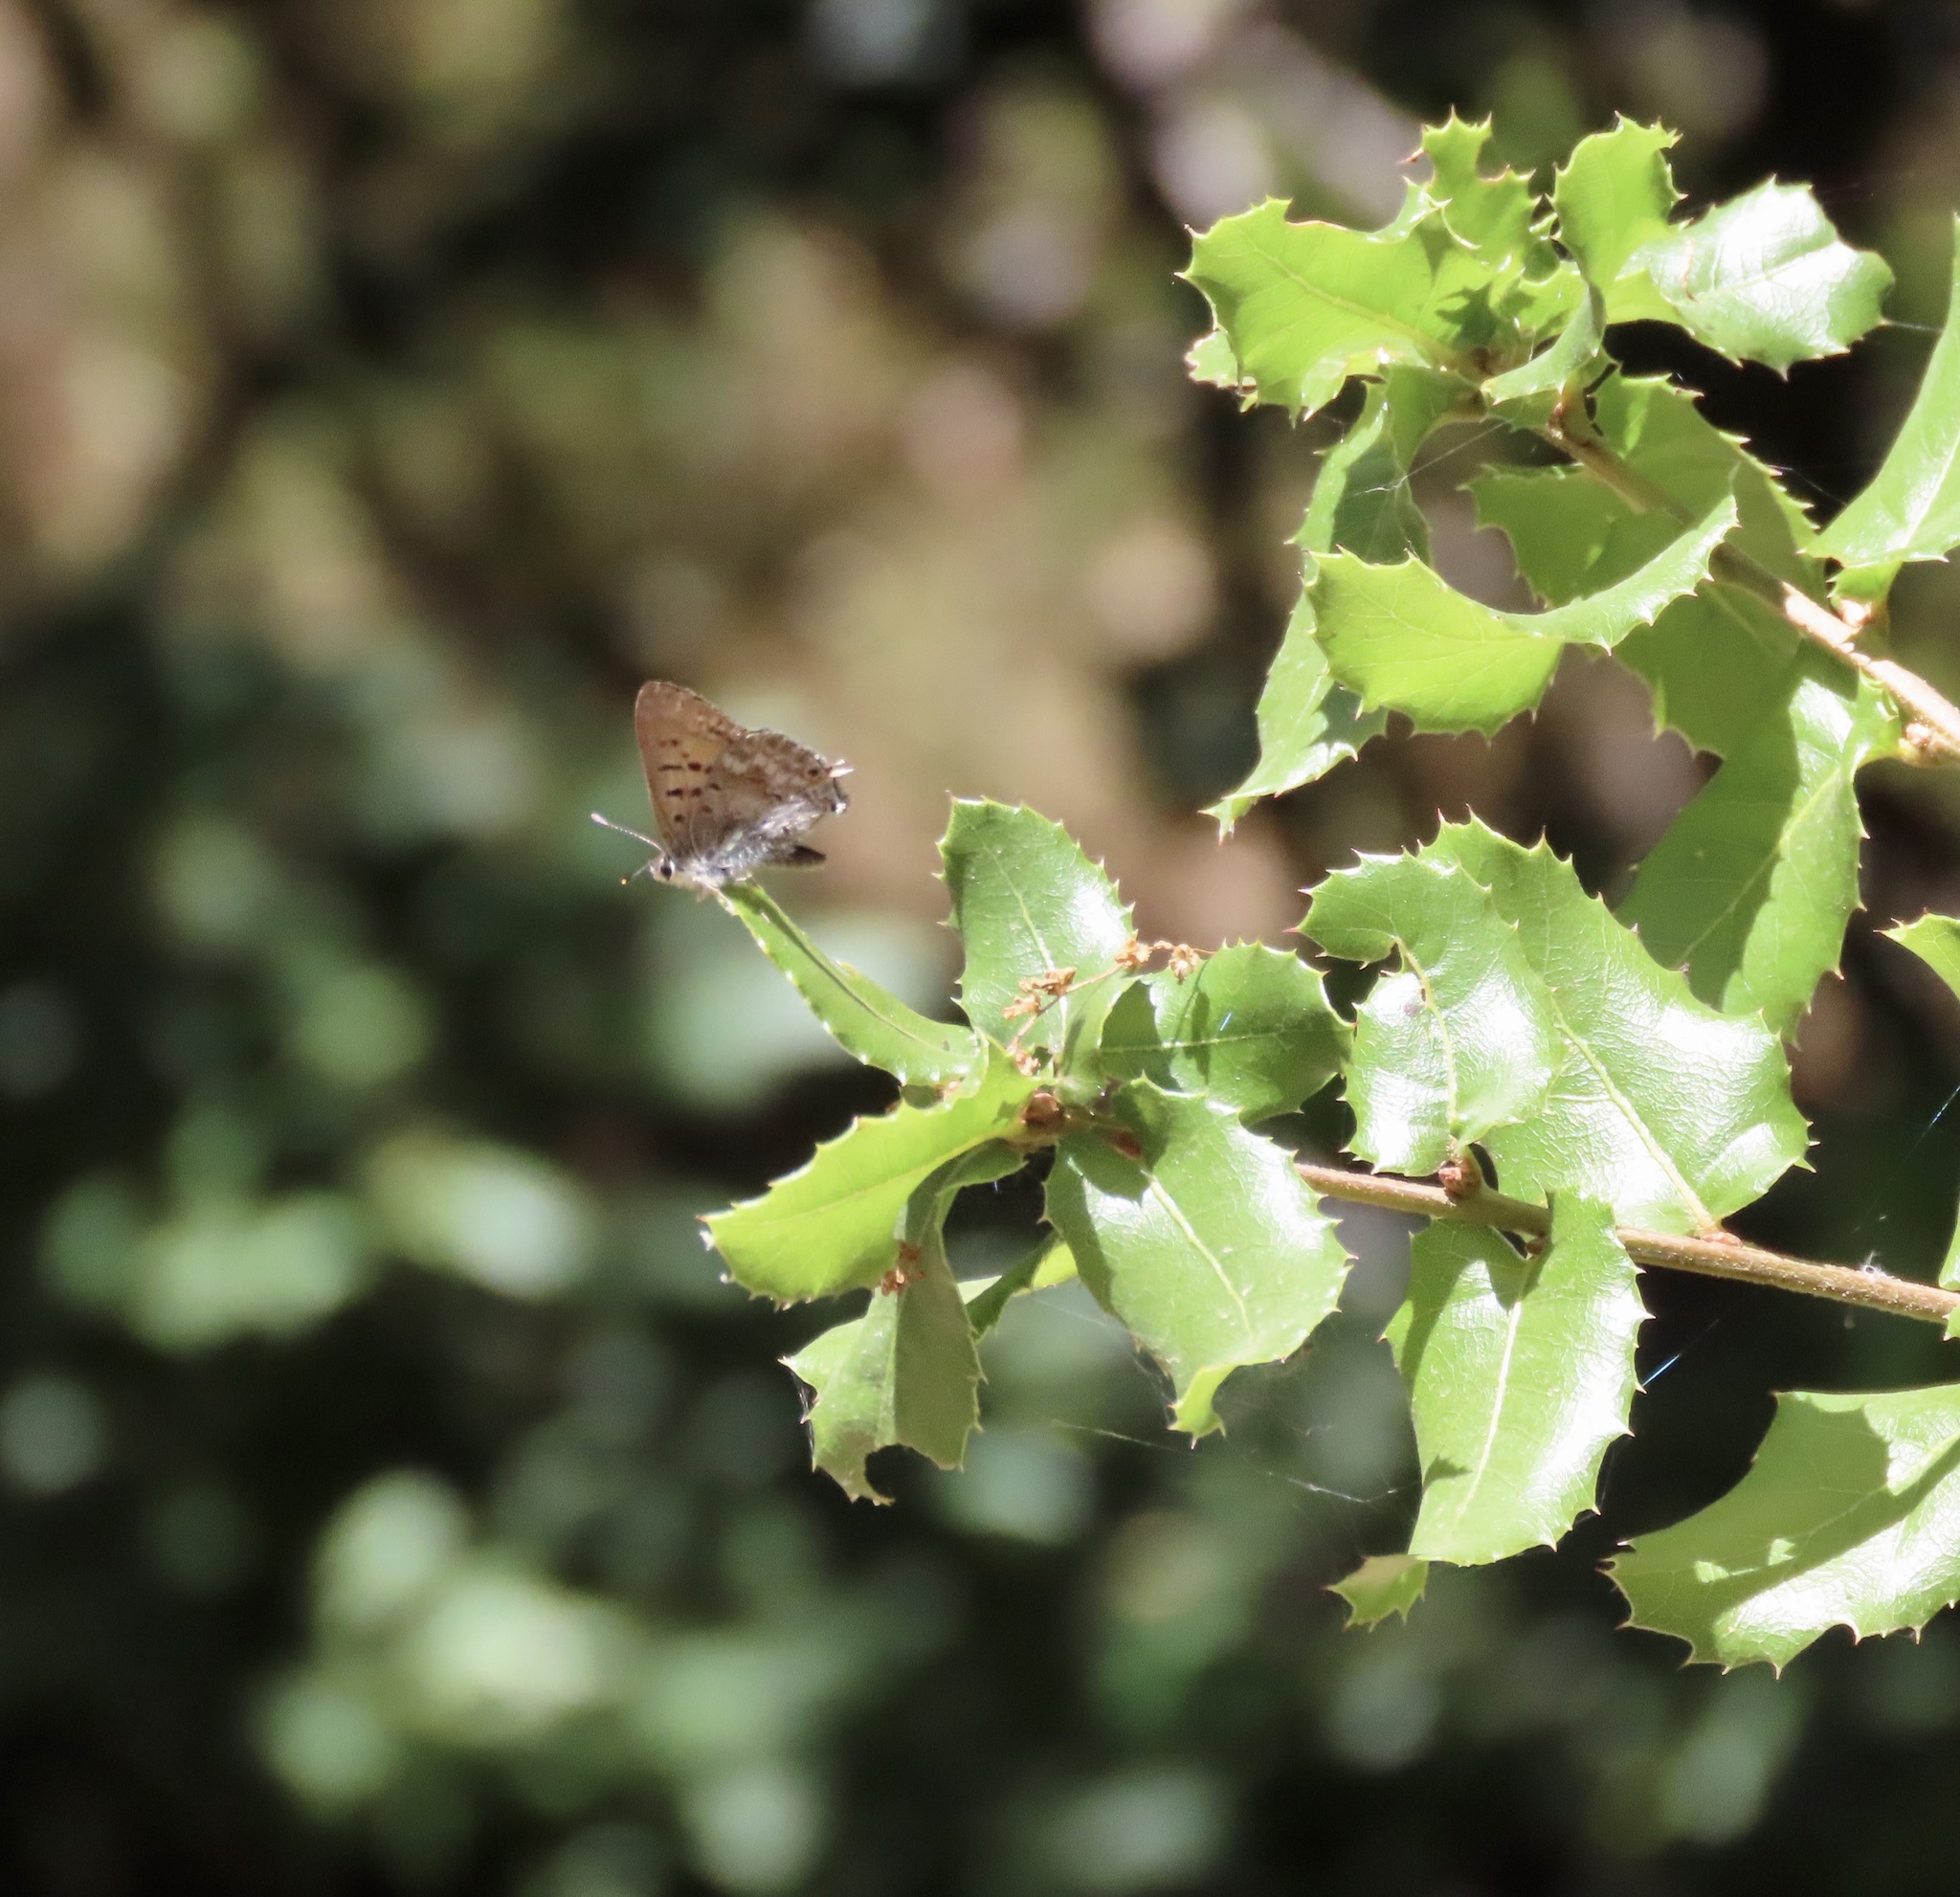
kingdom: Animalia
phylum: Arthropoda
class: Insecta
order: Lepidoptera
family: Lycaenidae
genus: Tharsalea
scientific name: Tharsalea arota
